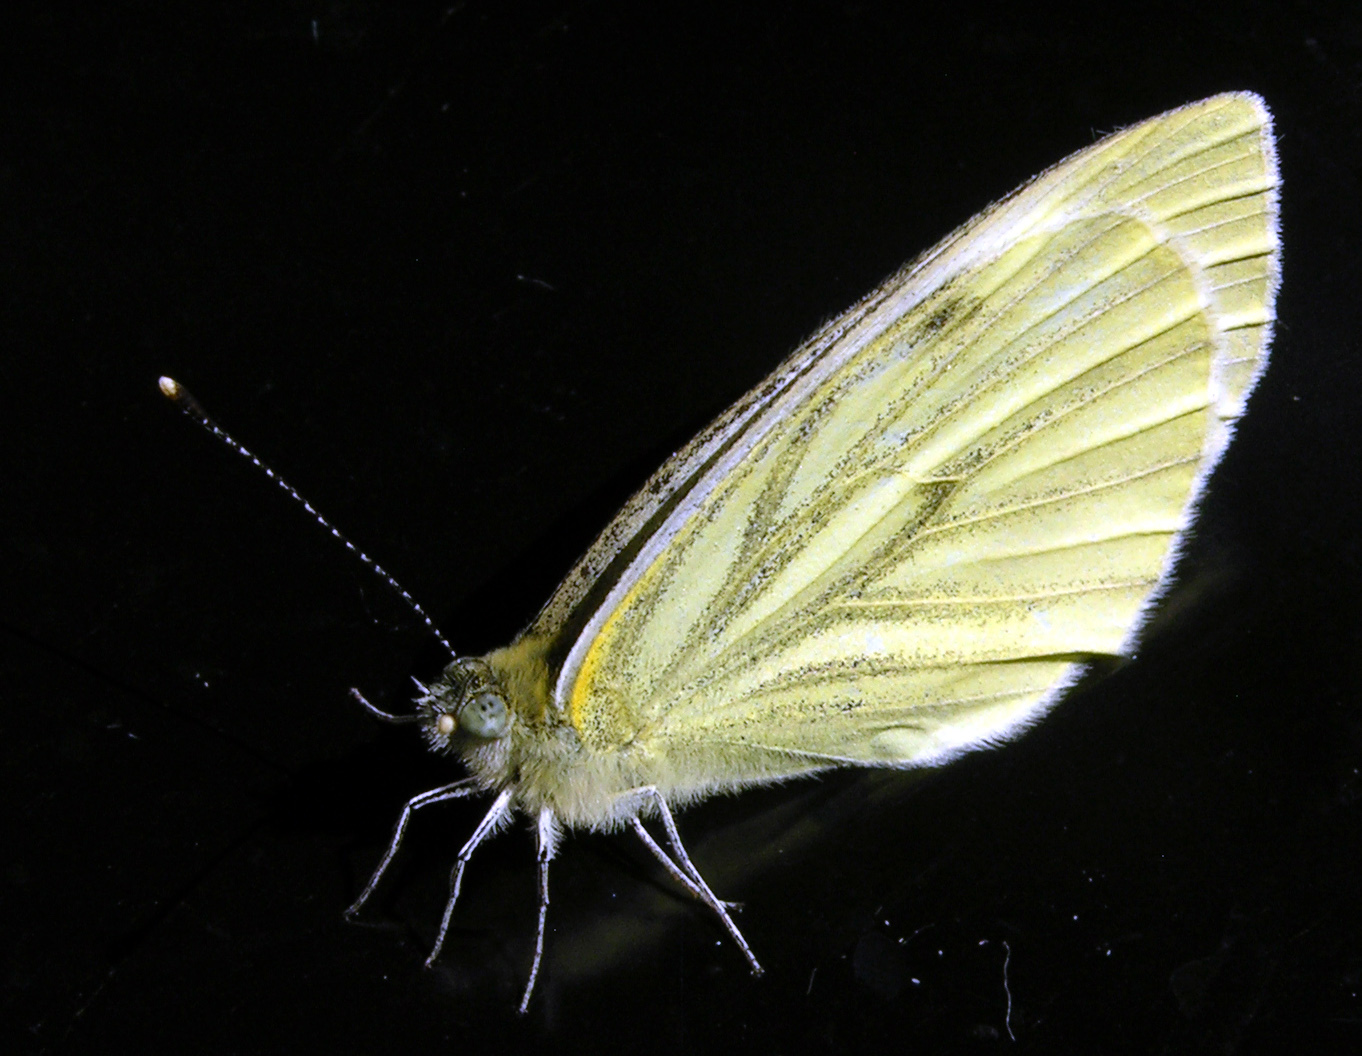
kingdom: Animalia
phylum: Arthropoda
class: Insecta
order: Lepidoptera
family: Pieridae
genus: Pieris
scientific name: Pieris napi
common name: Green-veined white
